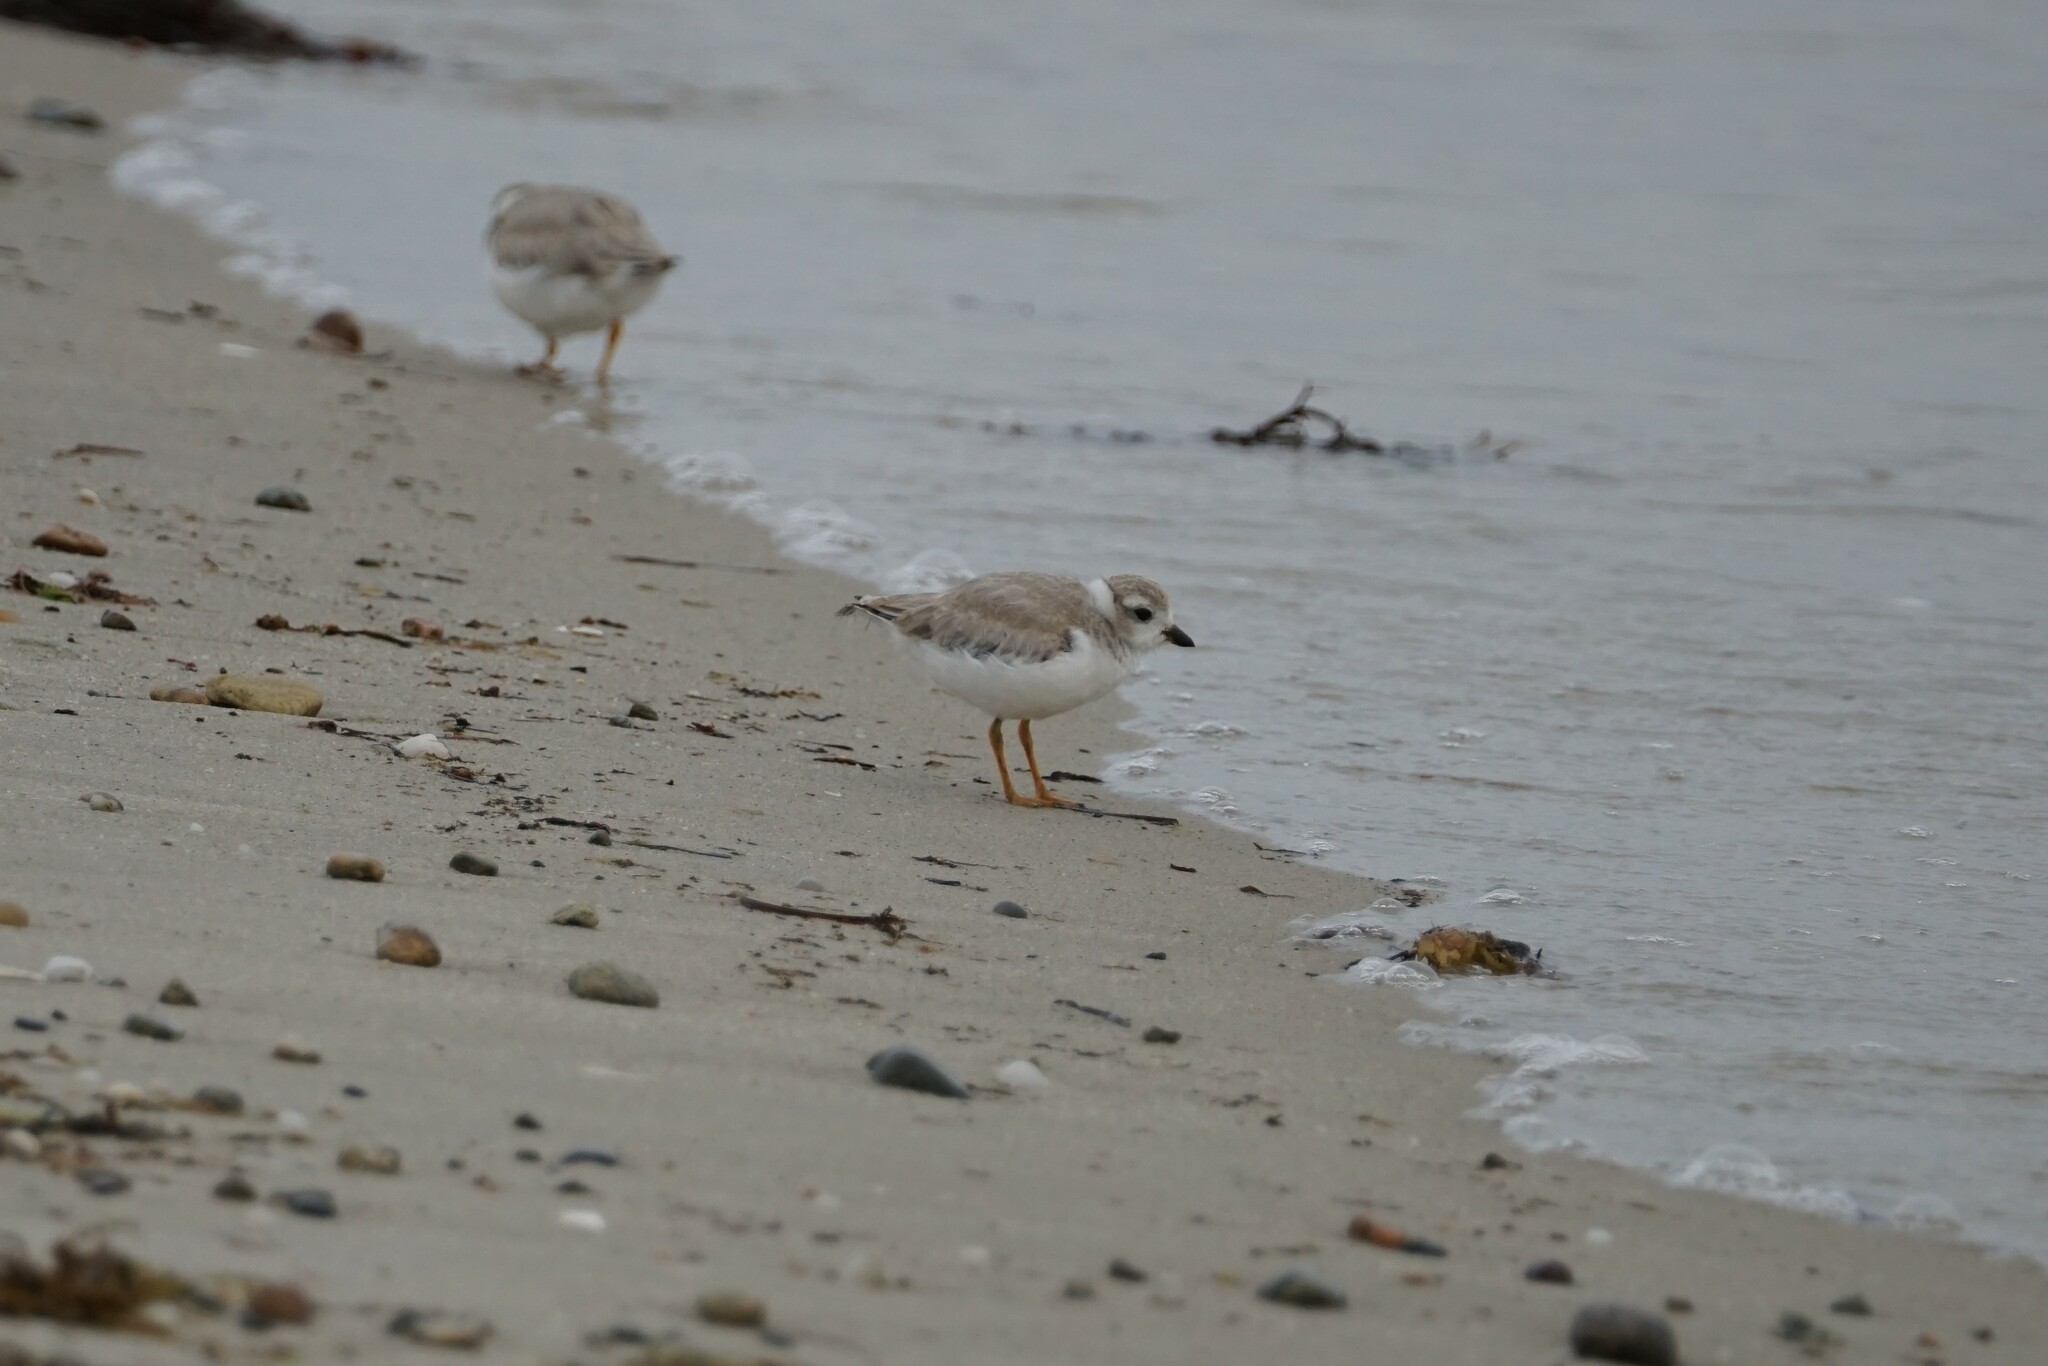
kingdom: Animalia
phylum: Chordata
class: Aves
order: Charadriiformes
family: Charadriidae
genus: Charadrius
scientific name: Charadrius melodus
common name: Piping plover
